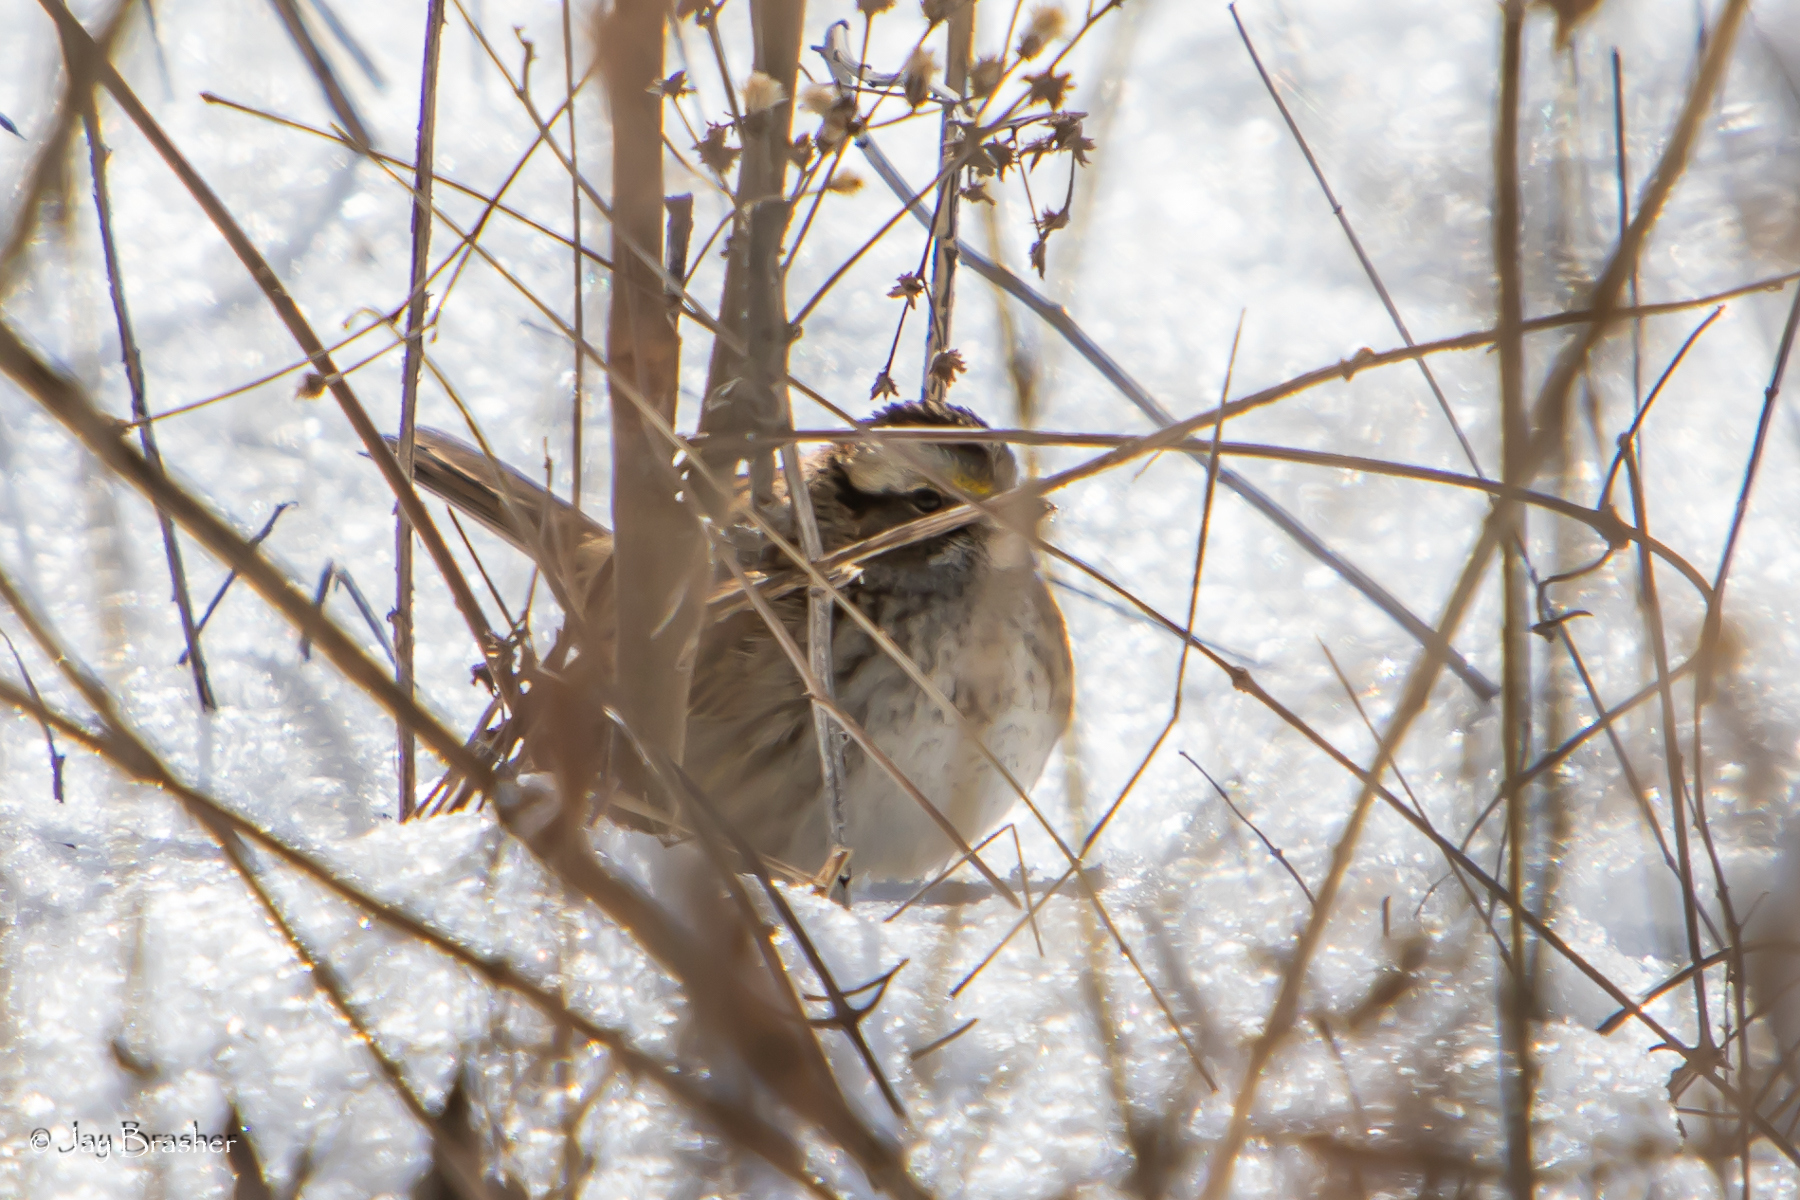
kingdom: Animalia
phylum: Chordata
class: Aves
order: Passeriformes
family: Passerellidae
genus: Zonotrichia
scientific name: Zonotrichia albicollis
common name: White-throated sparrow
